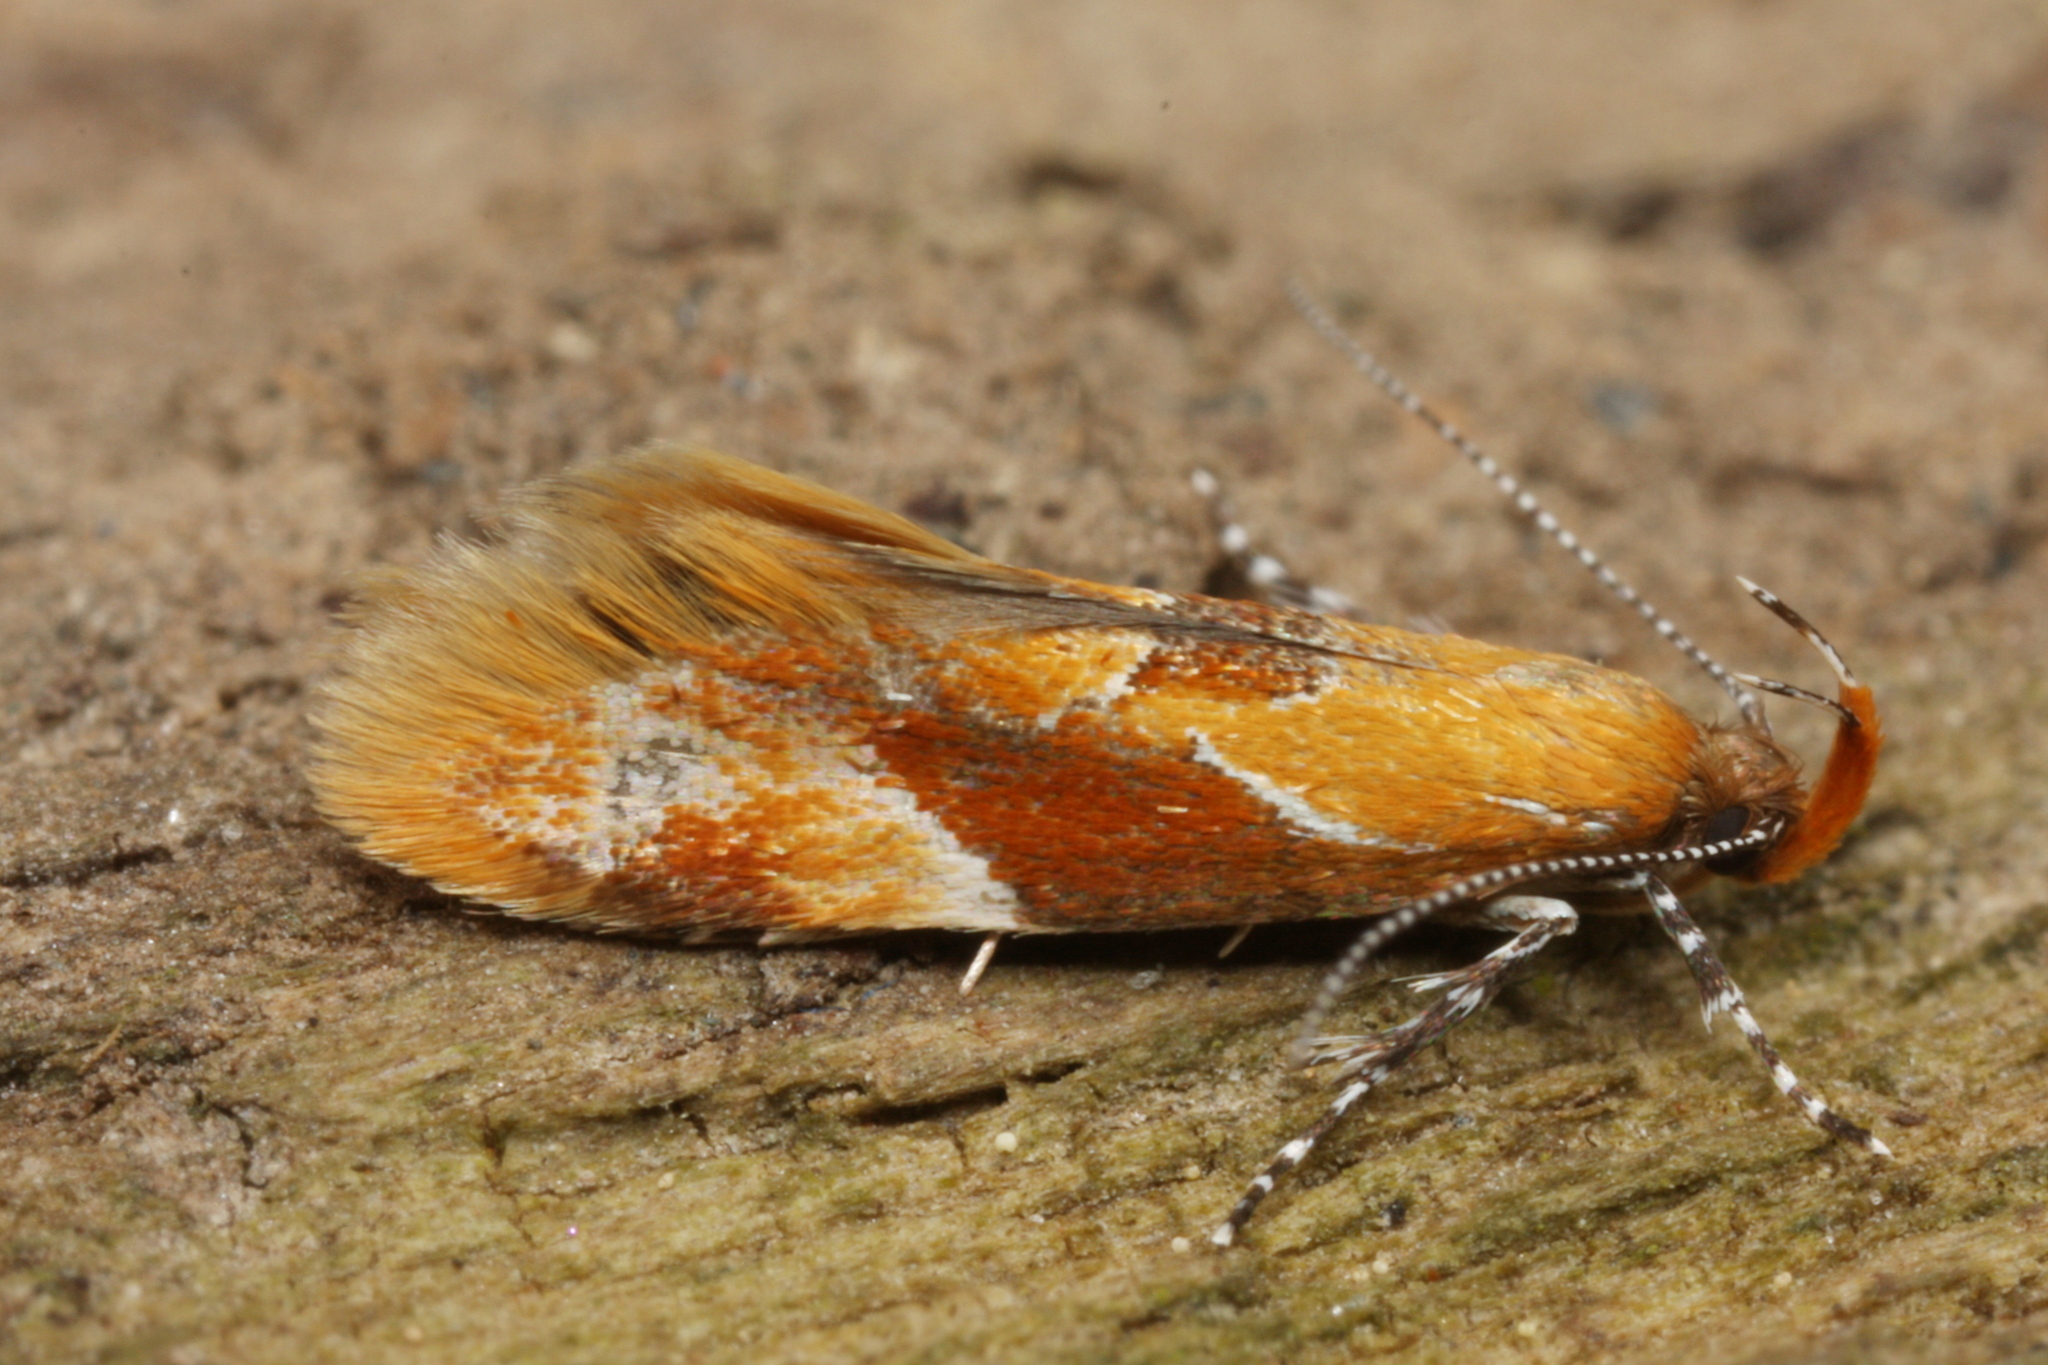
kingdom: Animalia
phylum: Arthropoda
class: Insecta
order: Lepidoptera
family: Oecophoridae
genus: Callima
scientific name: Callima formosella
